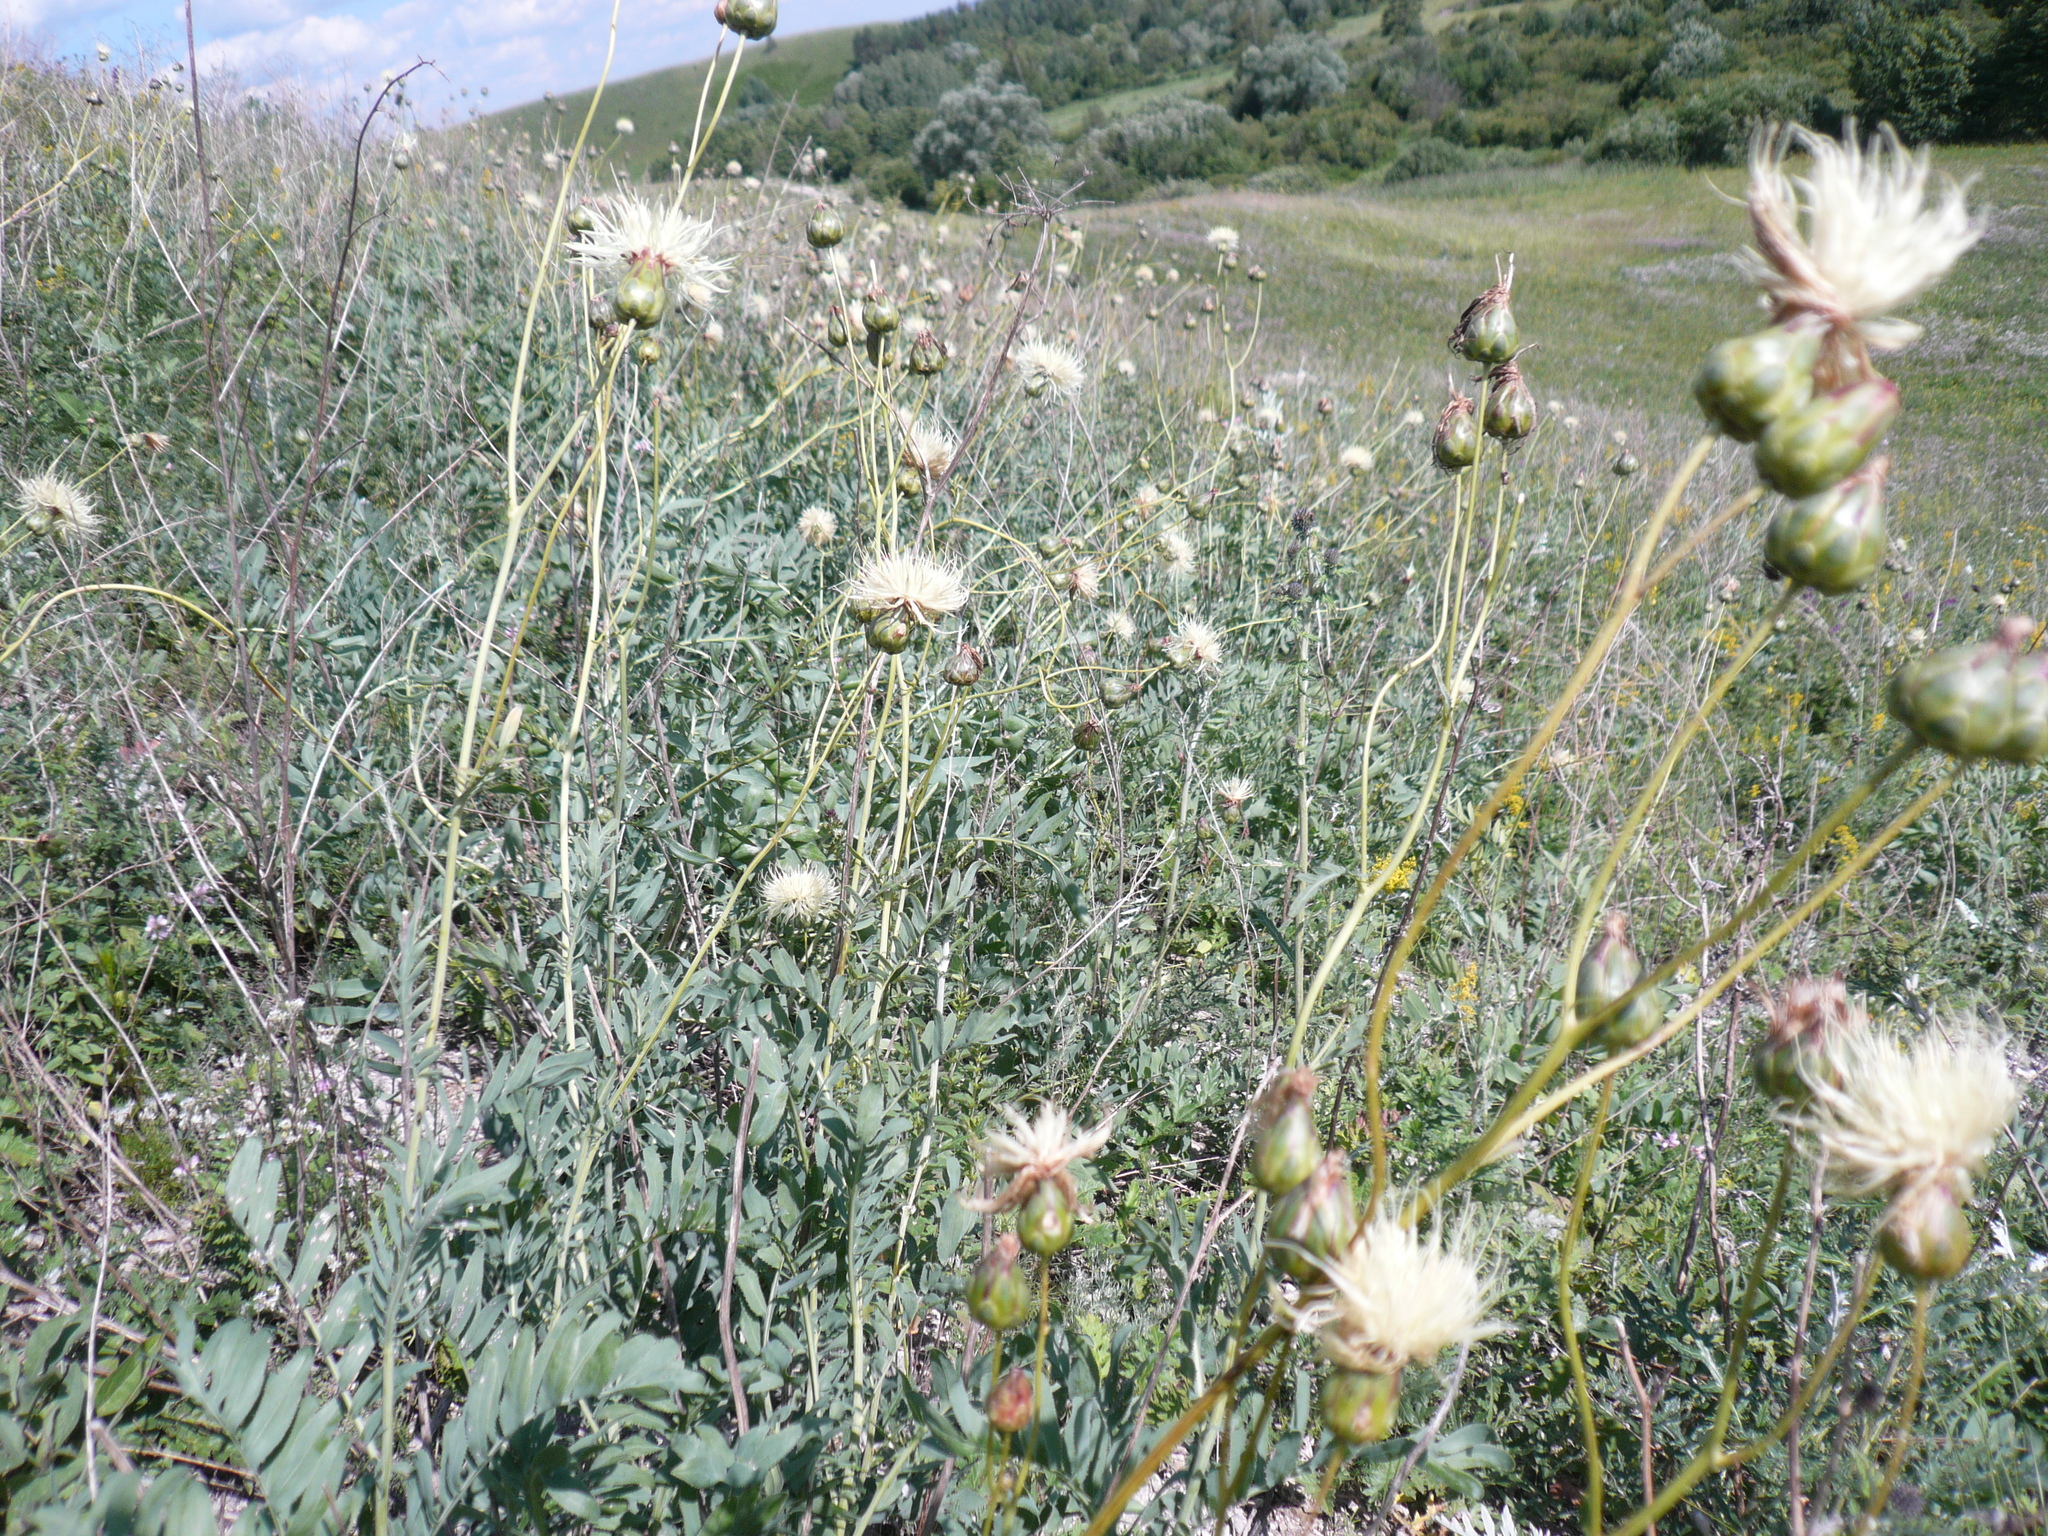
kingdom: Plantae
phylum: Tracheophyta
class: Magnoliopsida
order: Asterales
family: Asteraceae
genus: Rhaponticoides
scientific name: Rhaponticoides ruthenica
